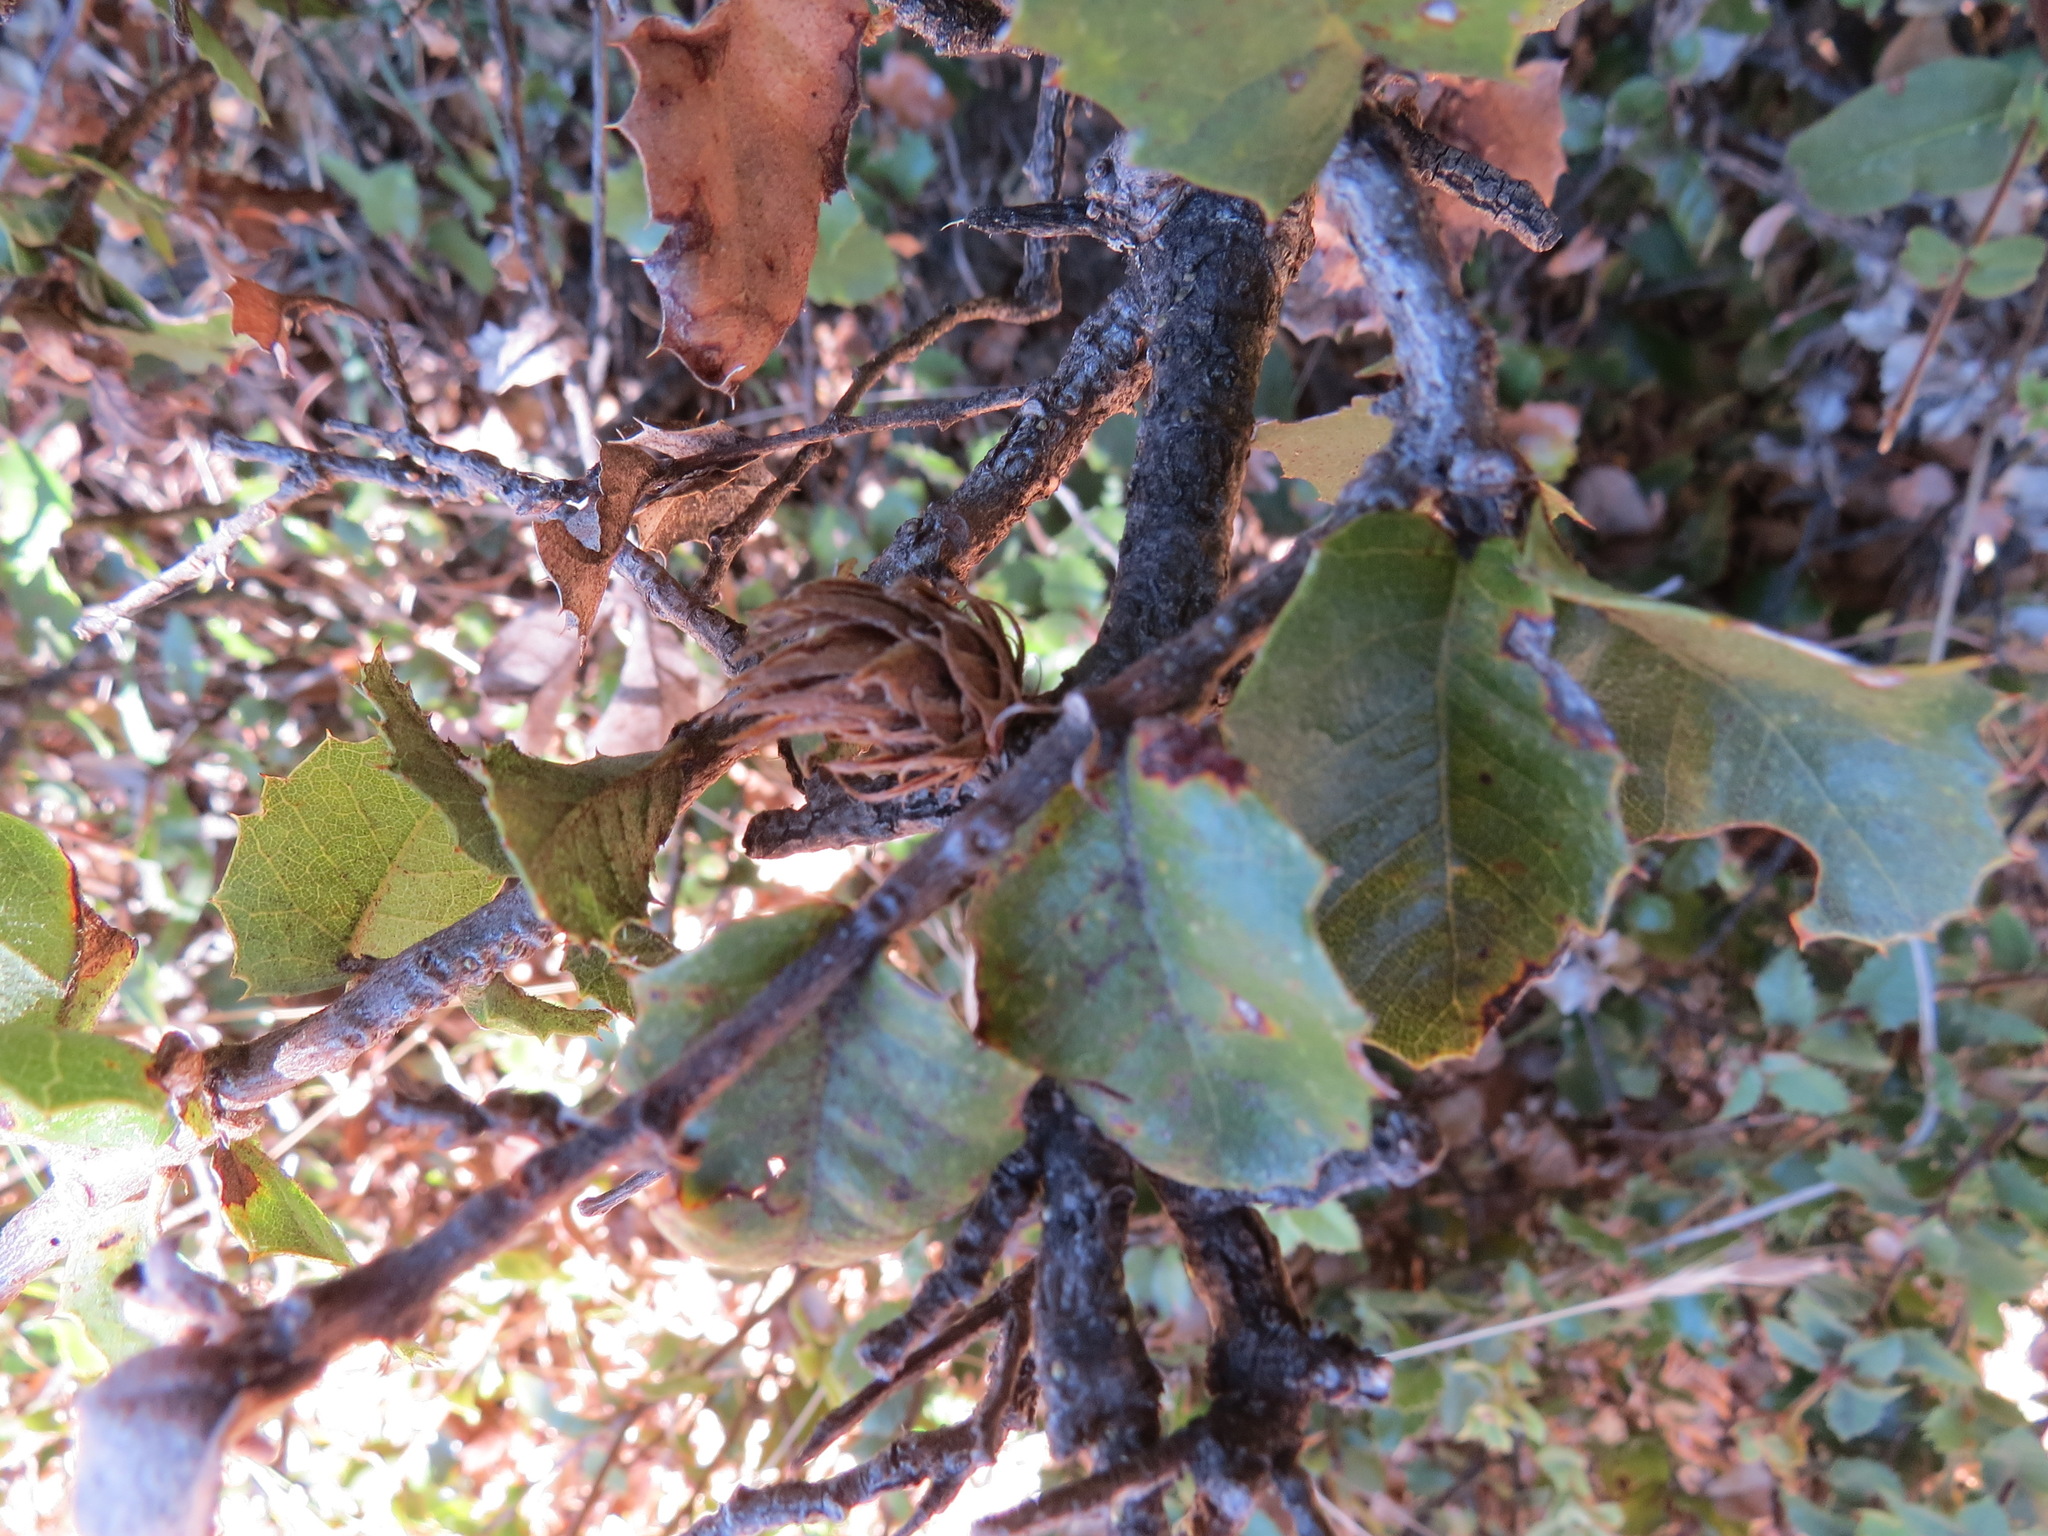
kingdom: Animalia
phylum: Arthropoda
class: Insecta
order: Hymenoptera
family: Cynipidae
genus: Andricus
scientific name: Andricus
